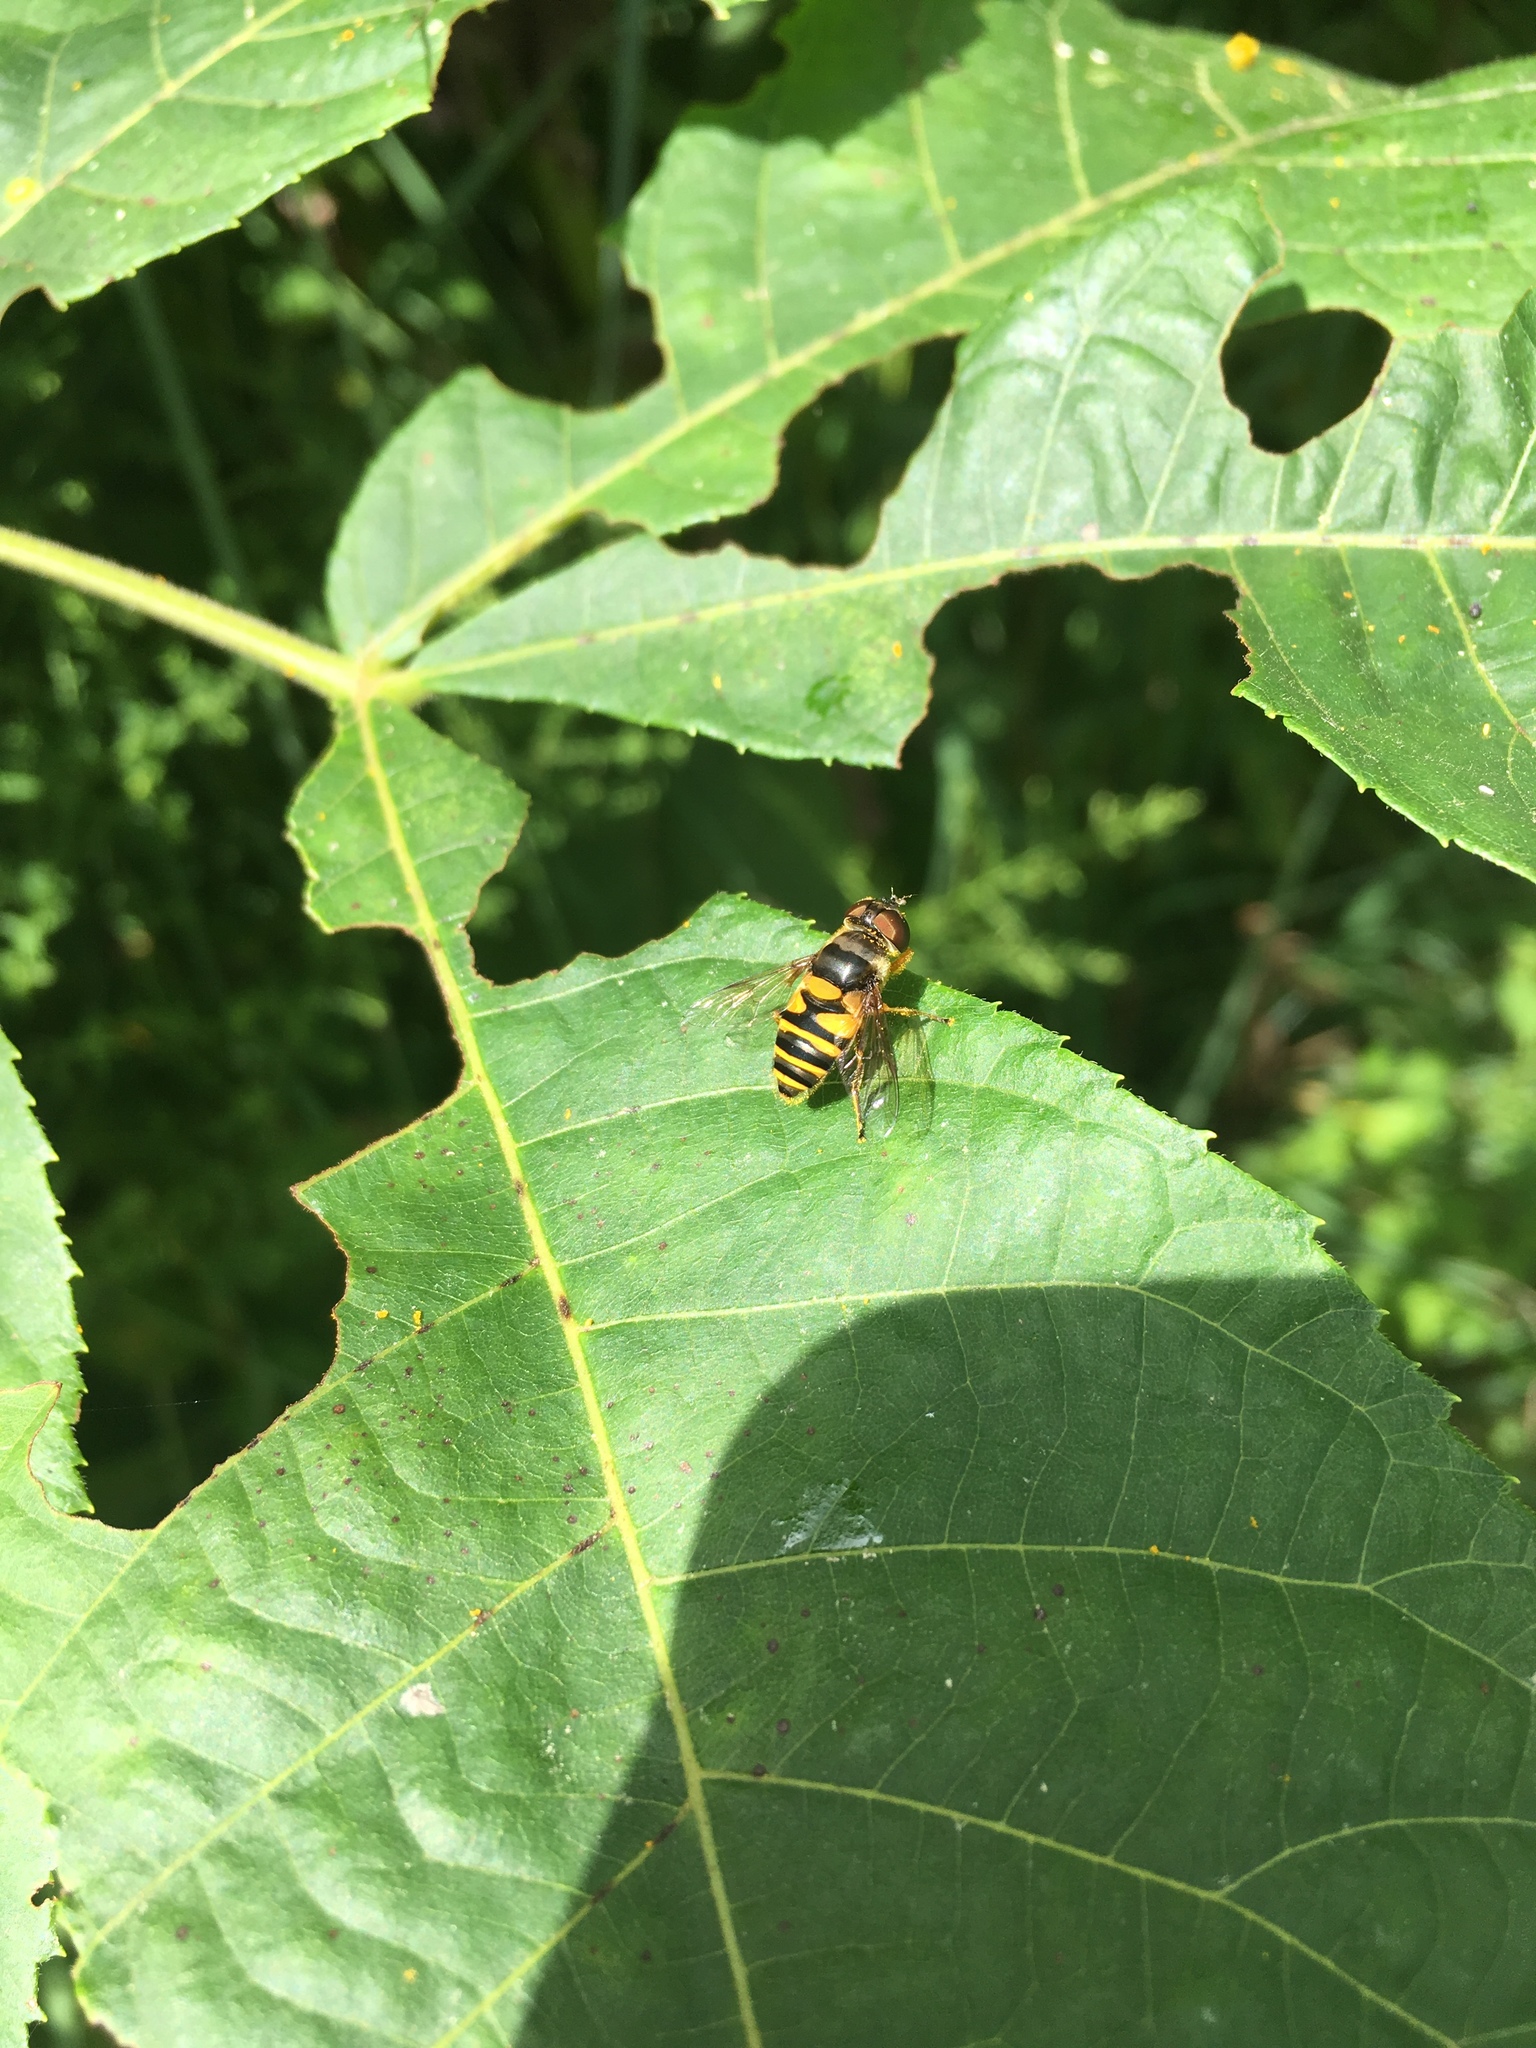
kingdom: Animalia
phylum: Arthropoda
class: Insecta
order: Diptera
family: Syrphidae
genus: Eristalis
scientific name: Eristalis transversa
